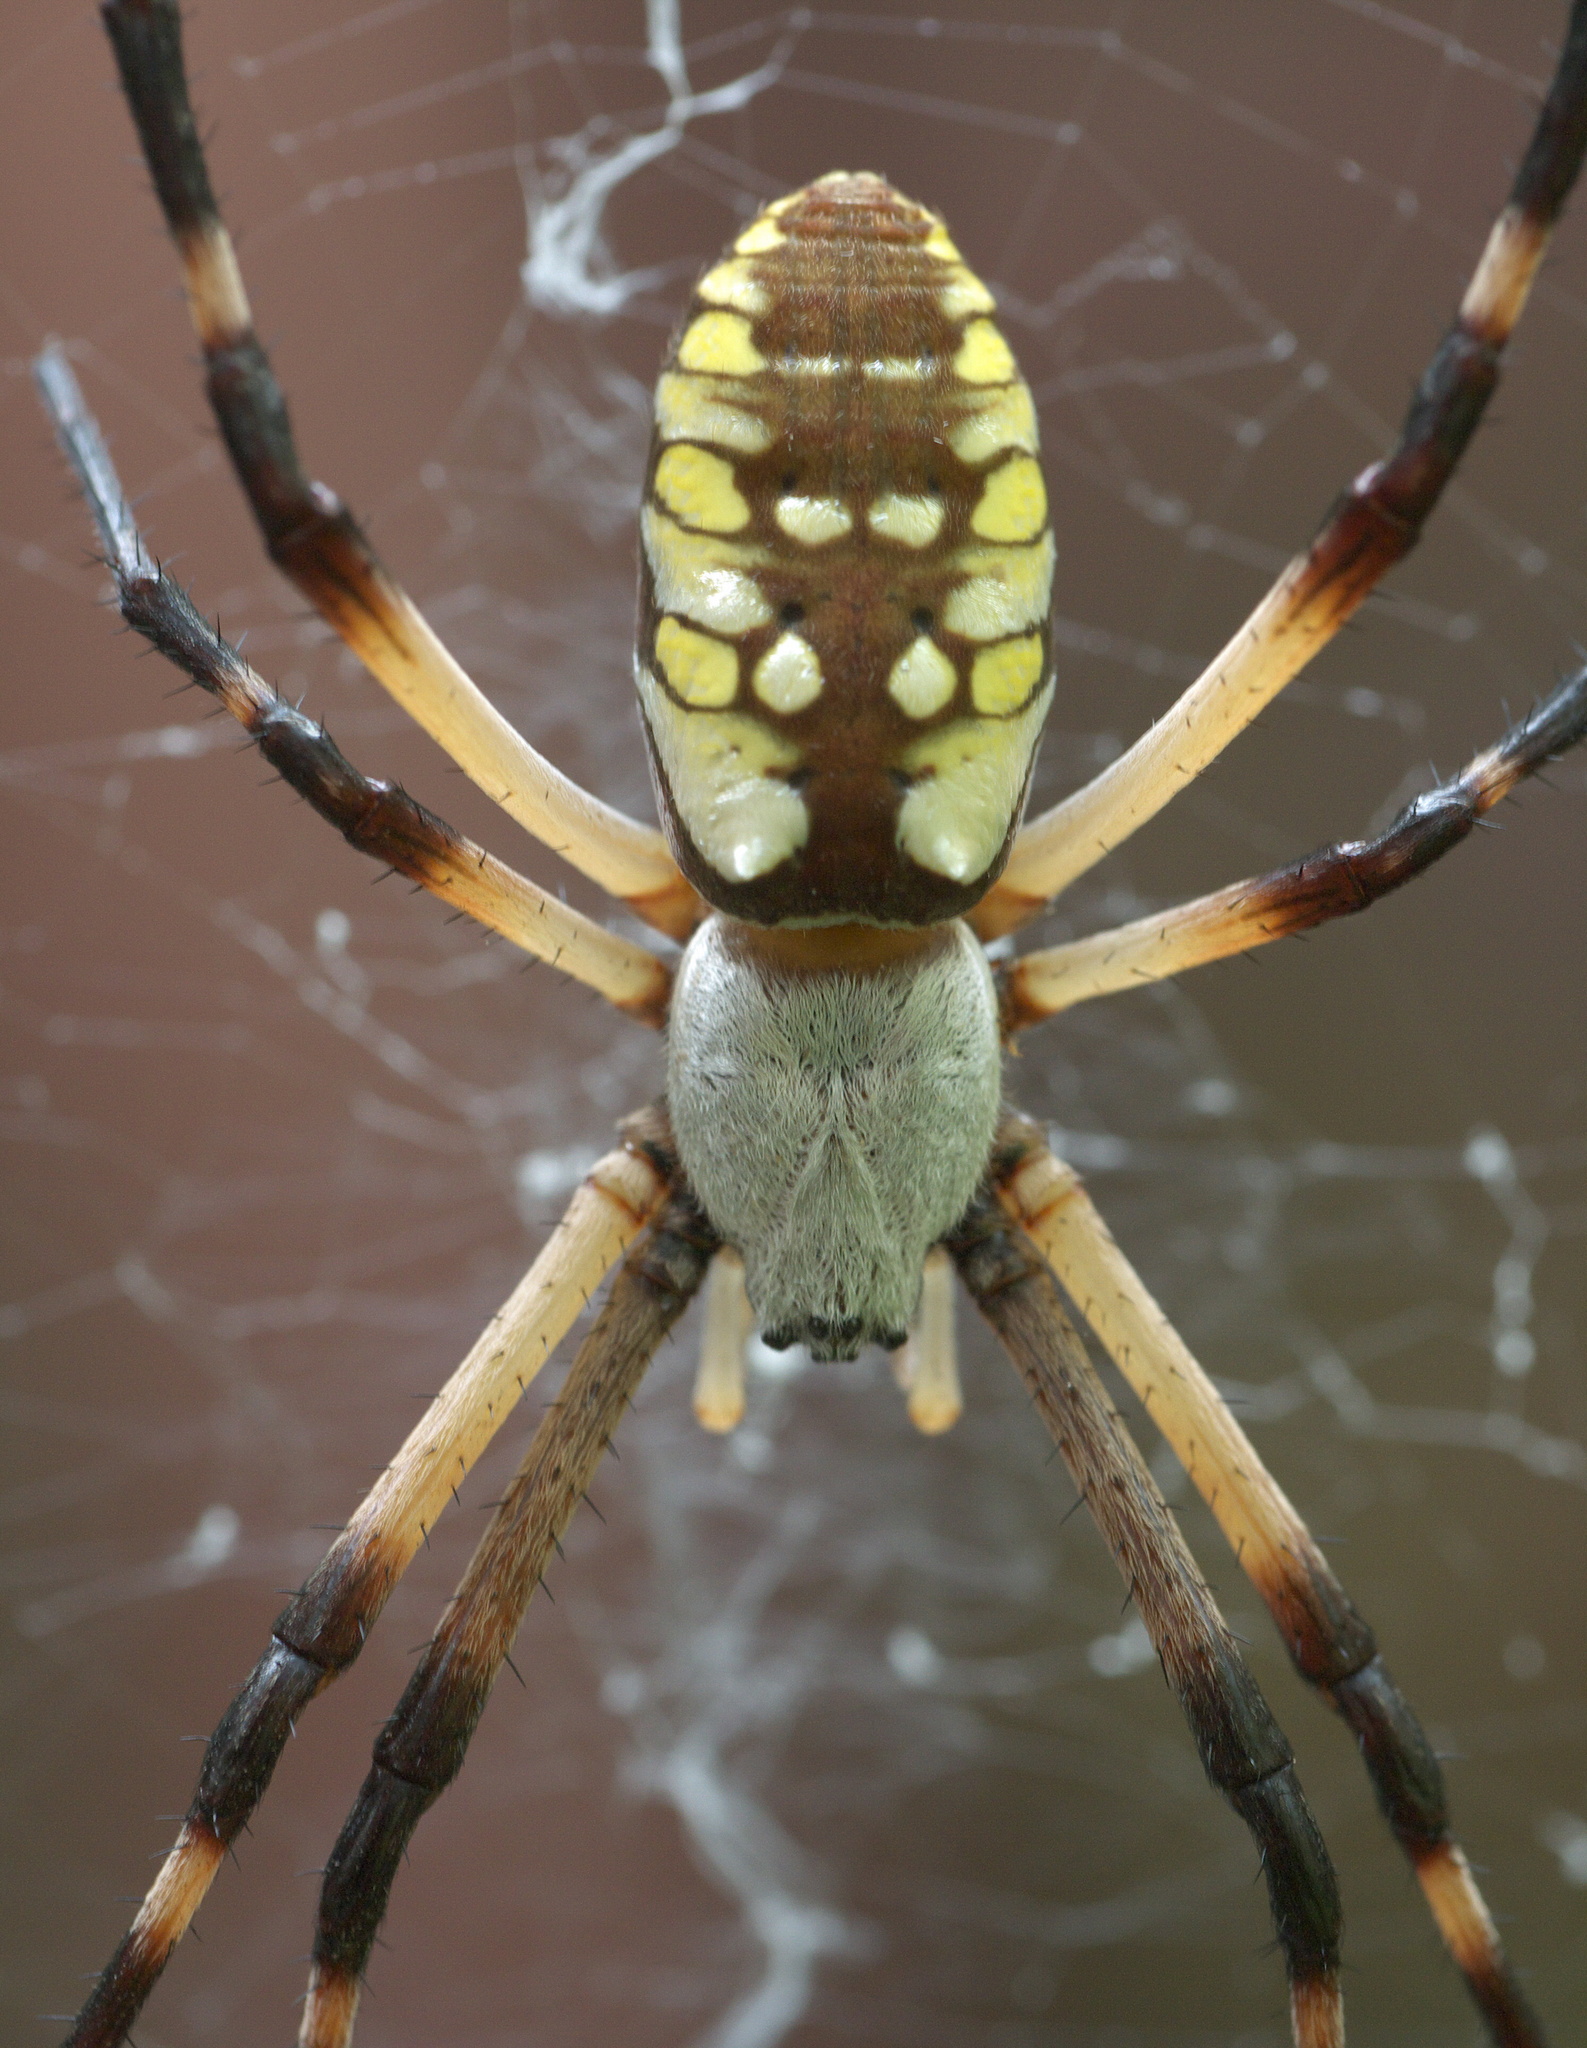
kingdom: Animalia
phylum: Arthropoda
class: Arachnida
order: Araneae
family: Araneidae
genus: Argiope
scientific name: Argiope aurantia
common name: Orb weavers
